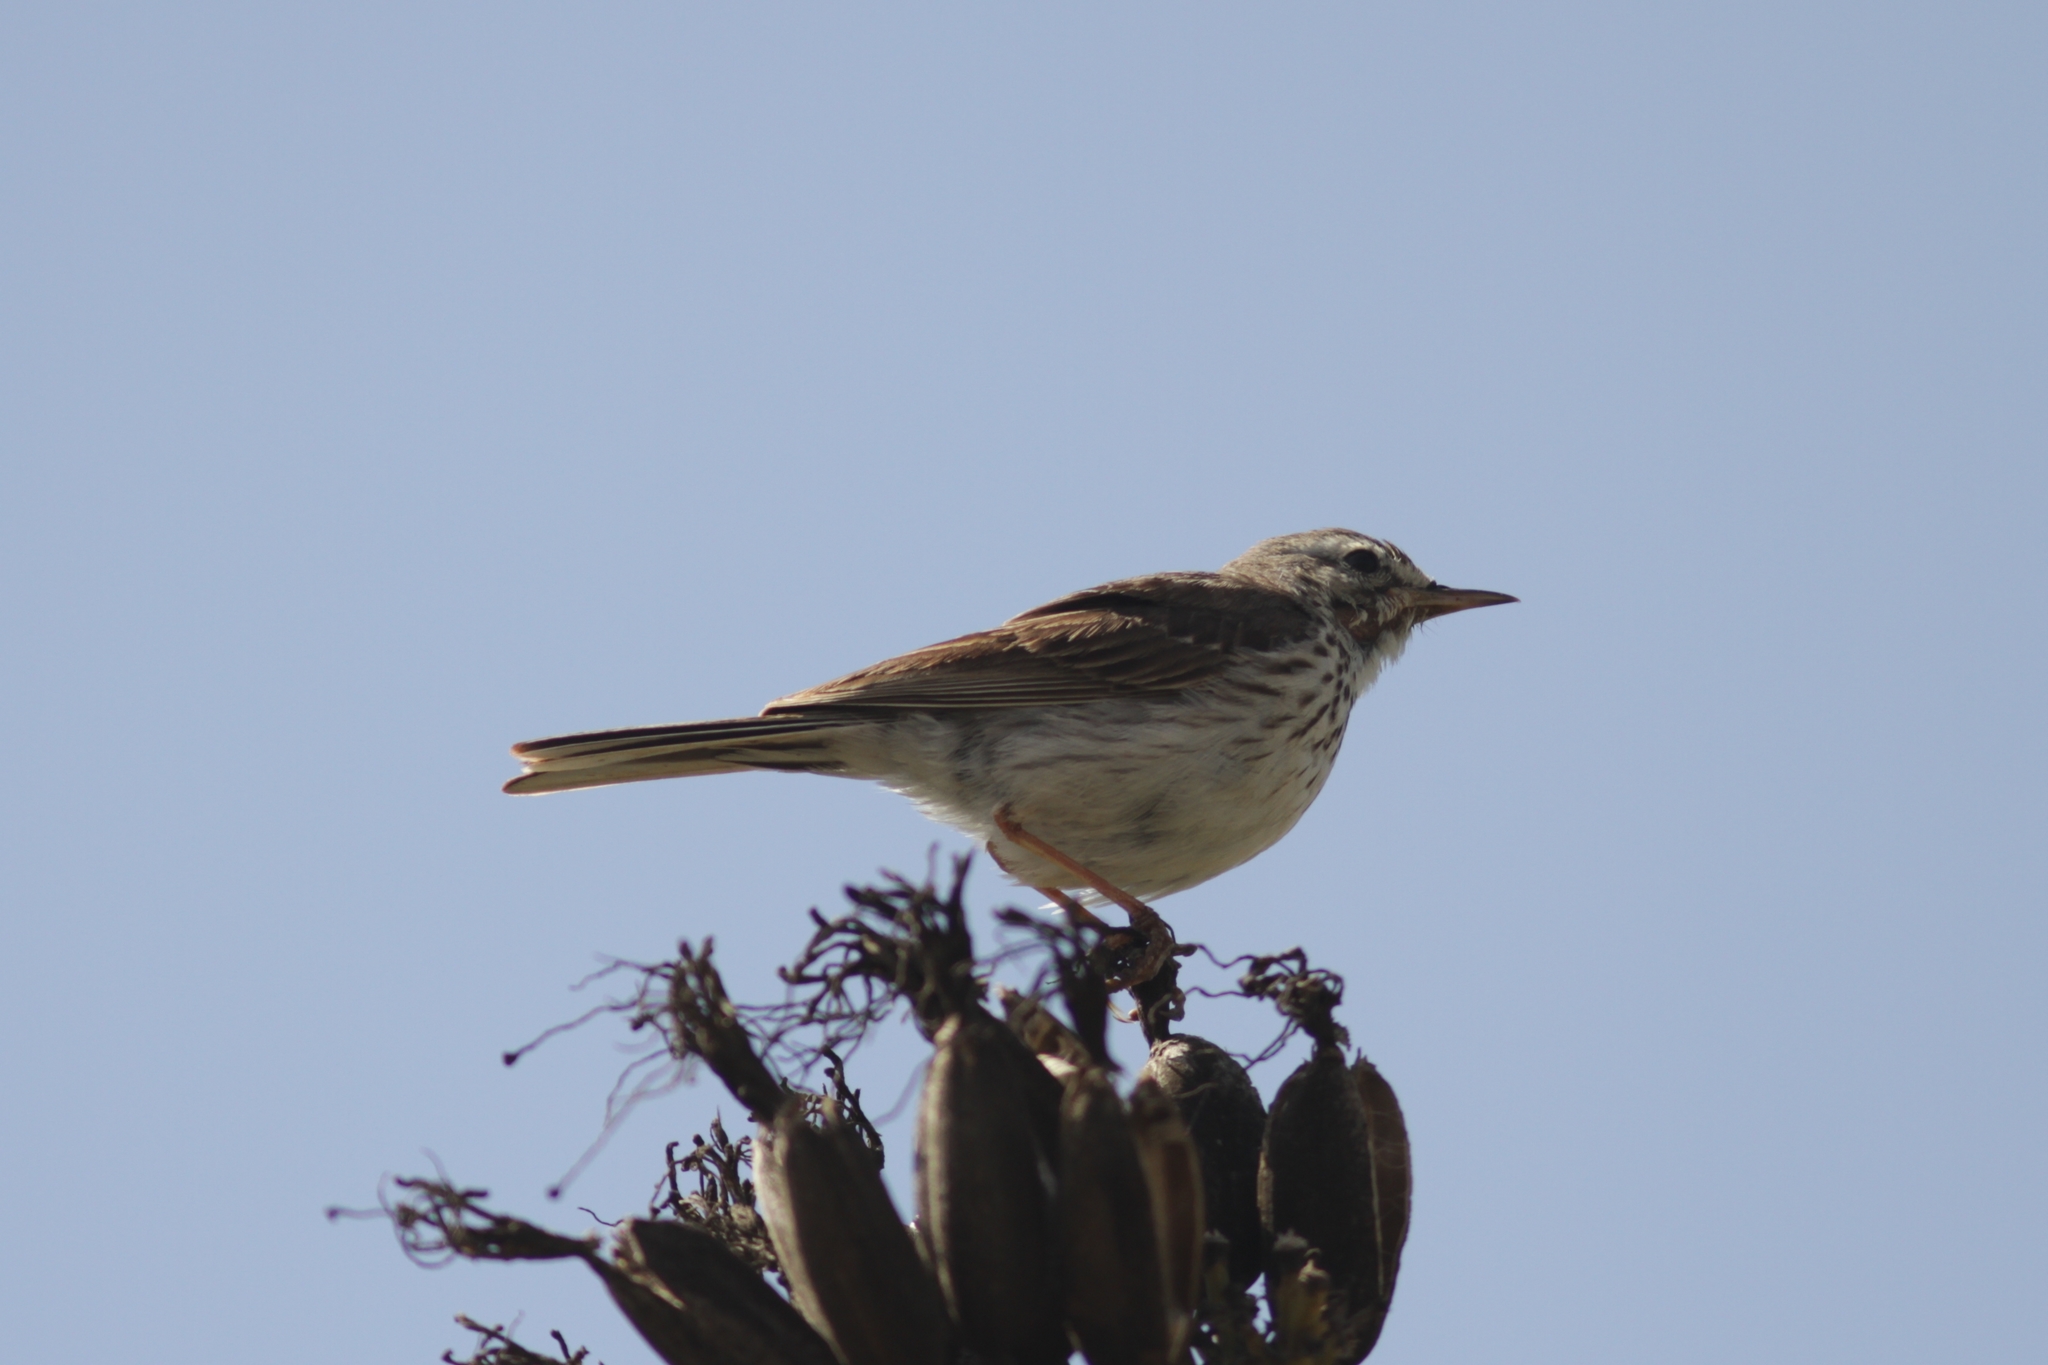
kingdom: Animalia
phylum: Chordata
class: Aves
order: Passeriformes
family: Motacillidae
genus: Anthus
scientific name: Anthus berthelotii
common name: Berthelot's pipit
